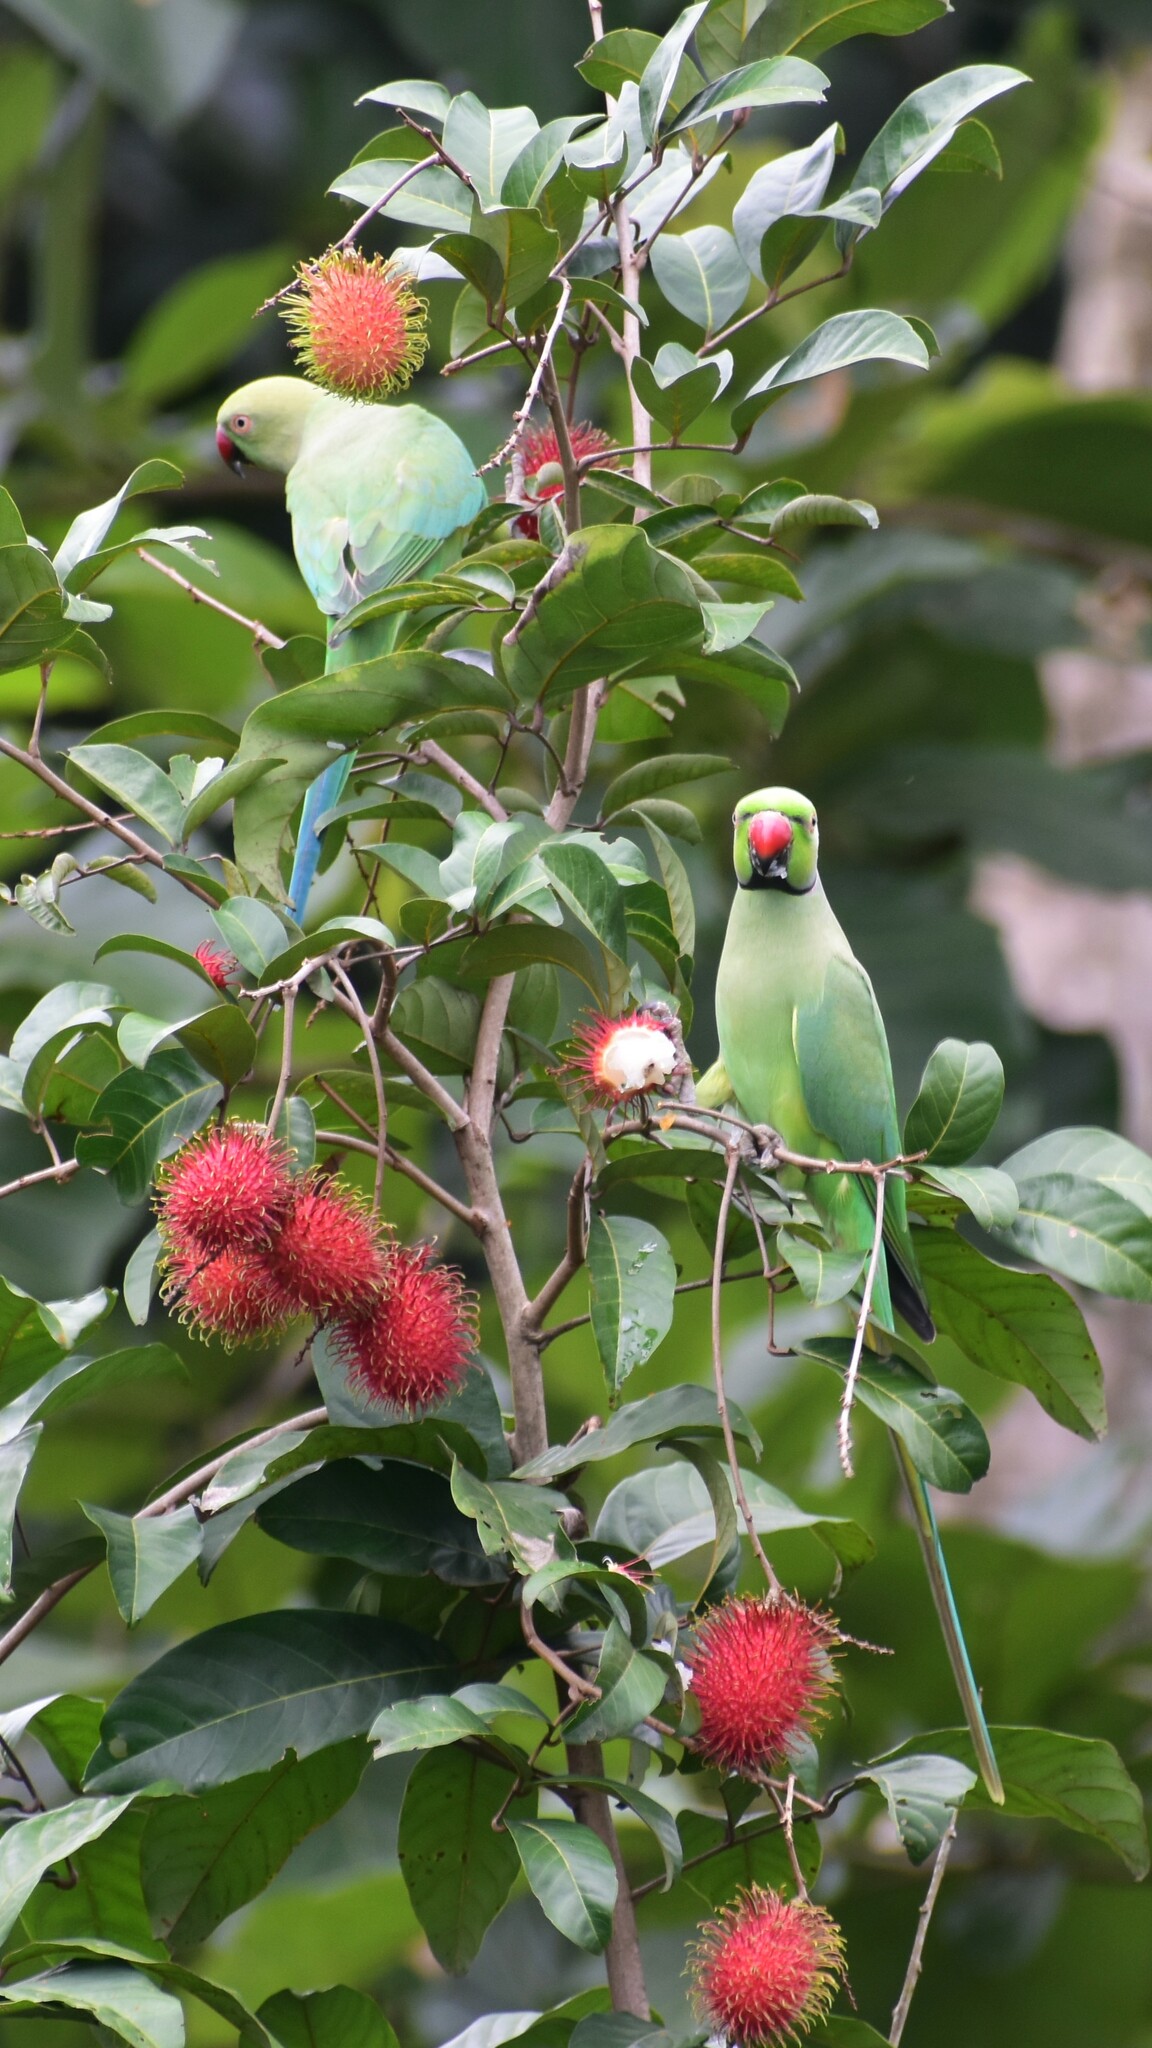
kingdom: Animalia
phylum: Chordata
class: Aves
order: Psittaciformes
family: Psittacidae
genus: Psittacula
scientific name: Psittacula krameri
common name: Rose-ringed parakeet
